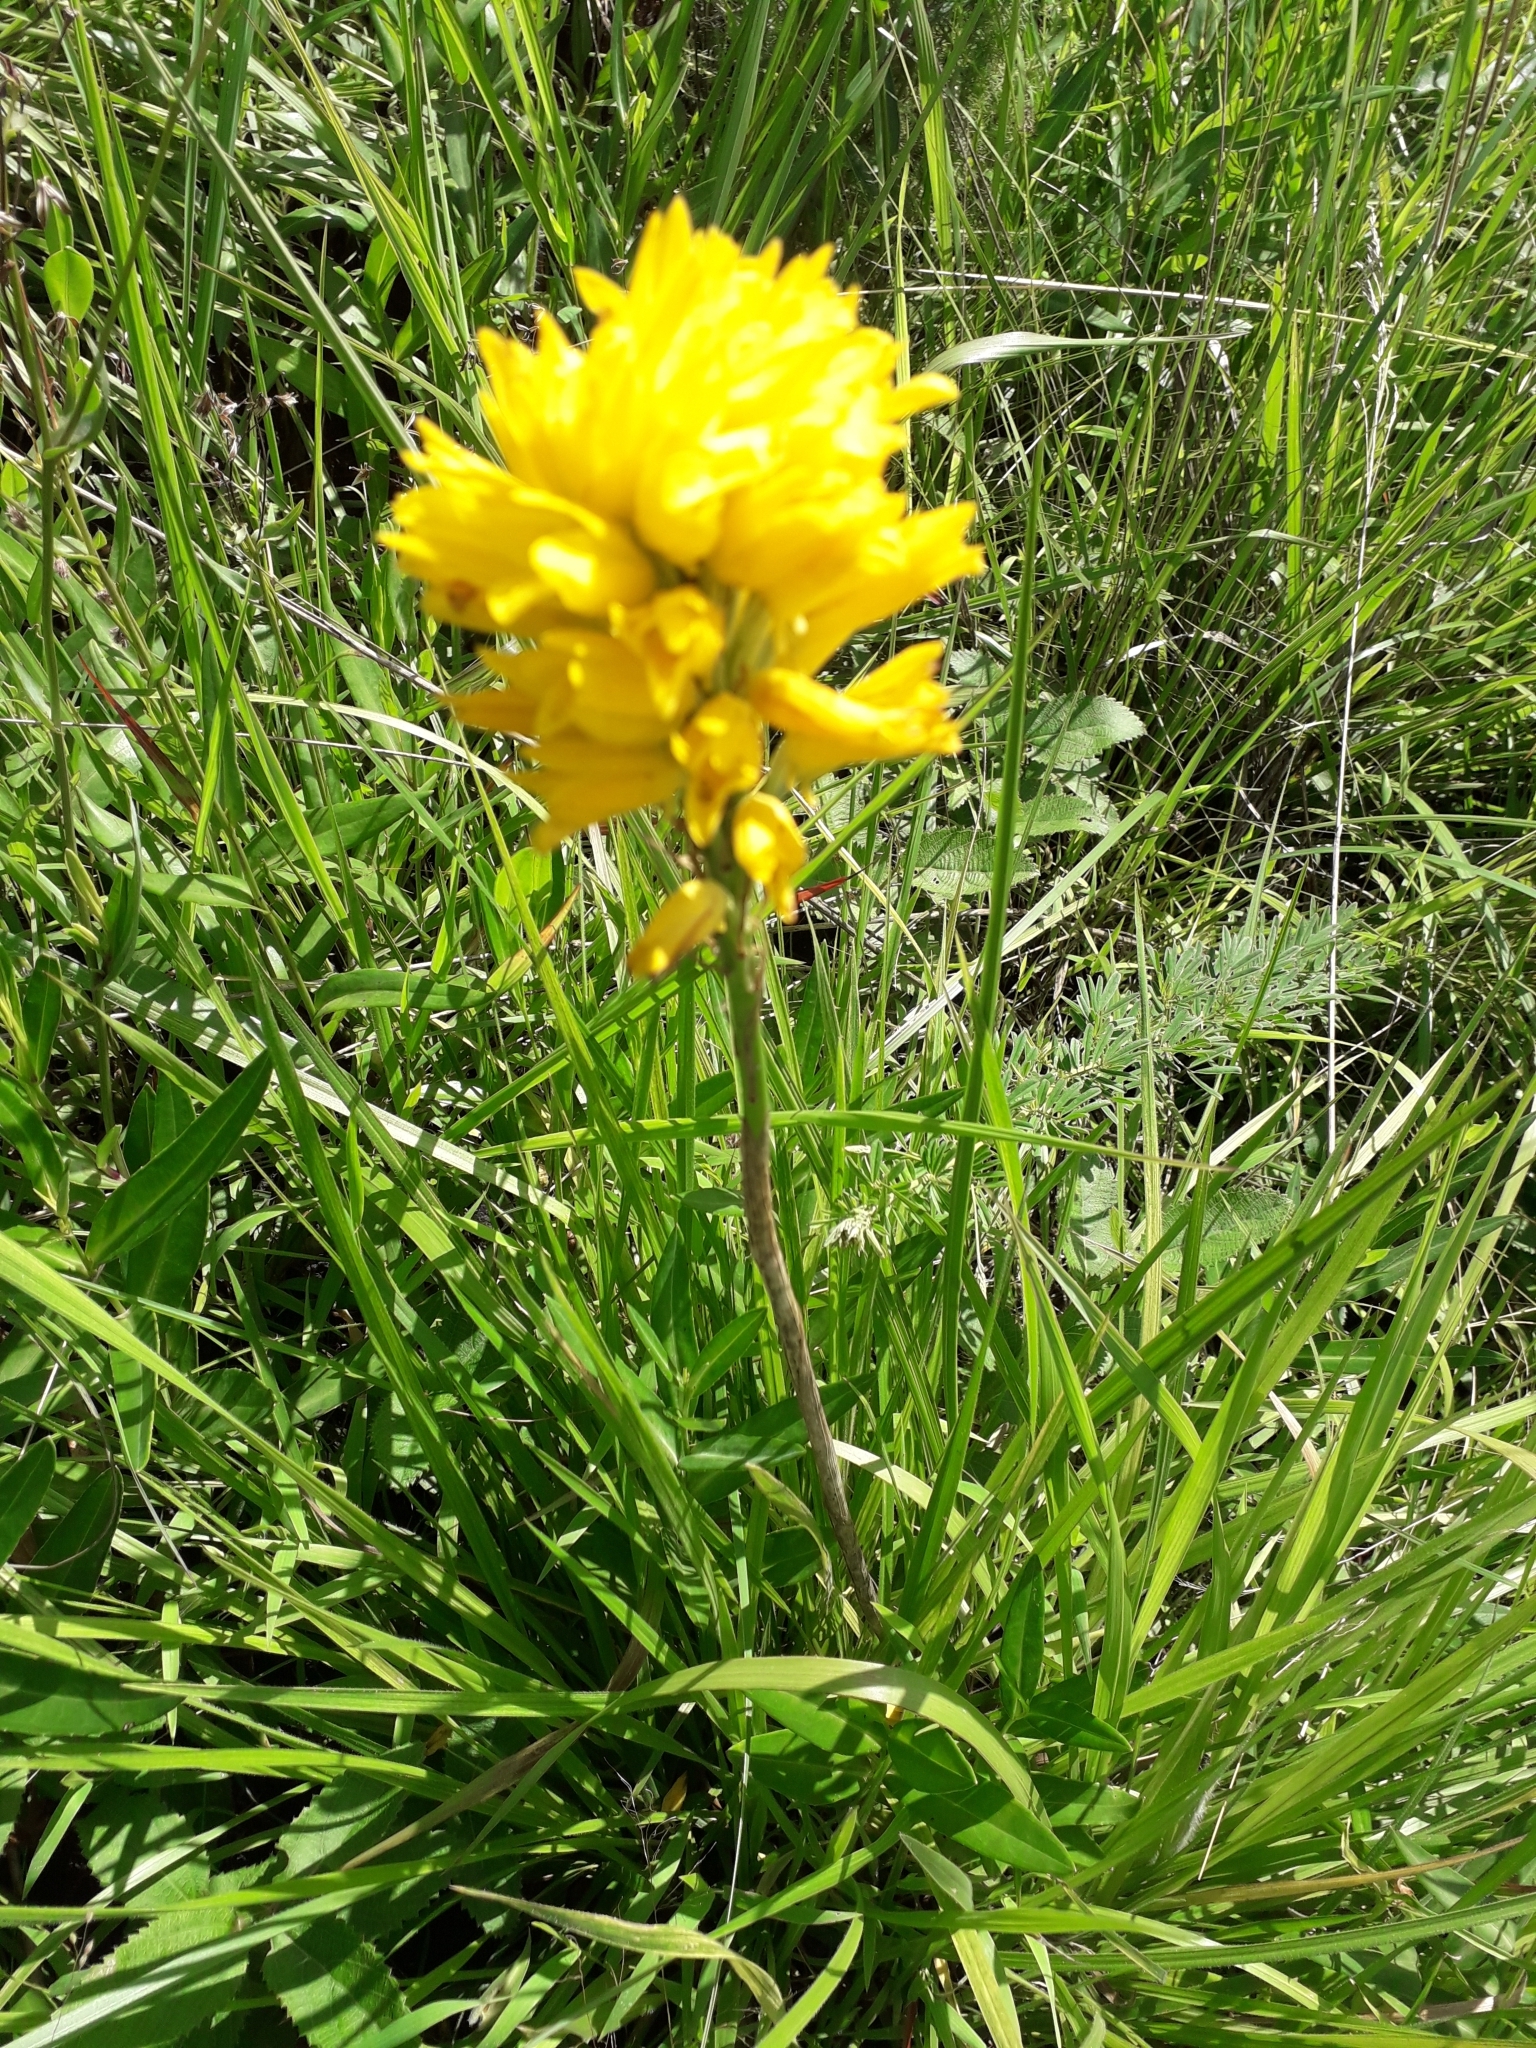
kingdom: Plantae
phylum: Tracheophyta
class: Liliopsida
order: Asparagales
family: Orchidaceae
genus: Eulophia
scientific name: Eulophia ensata
